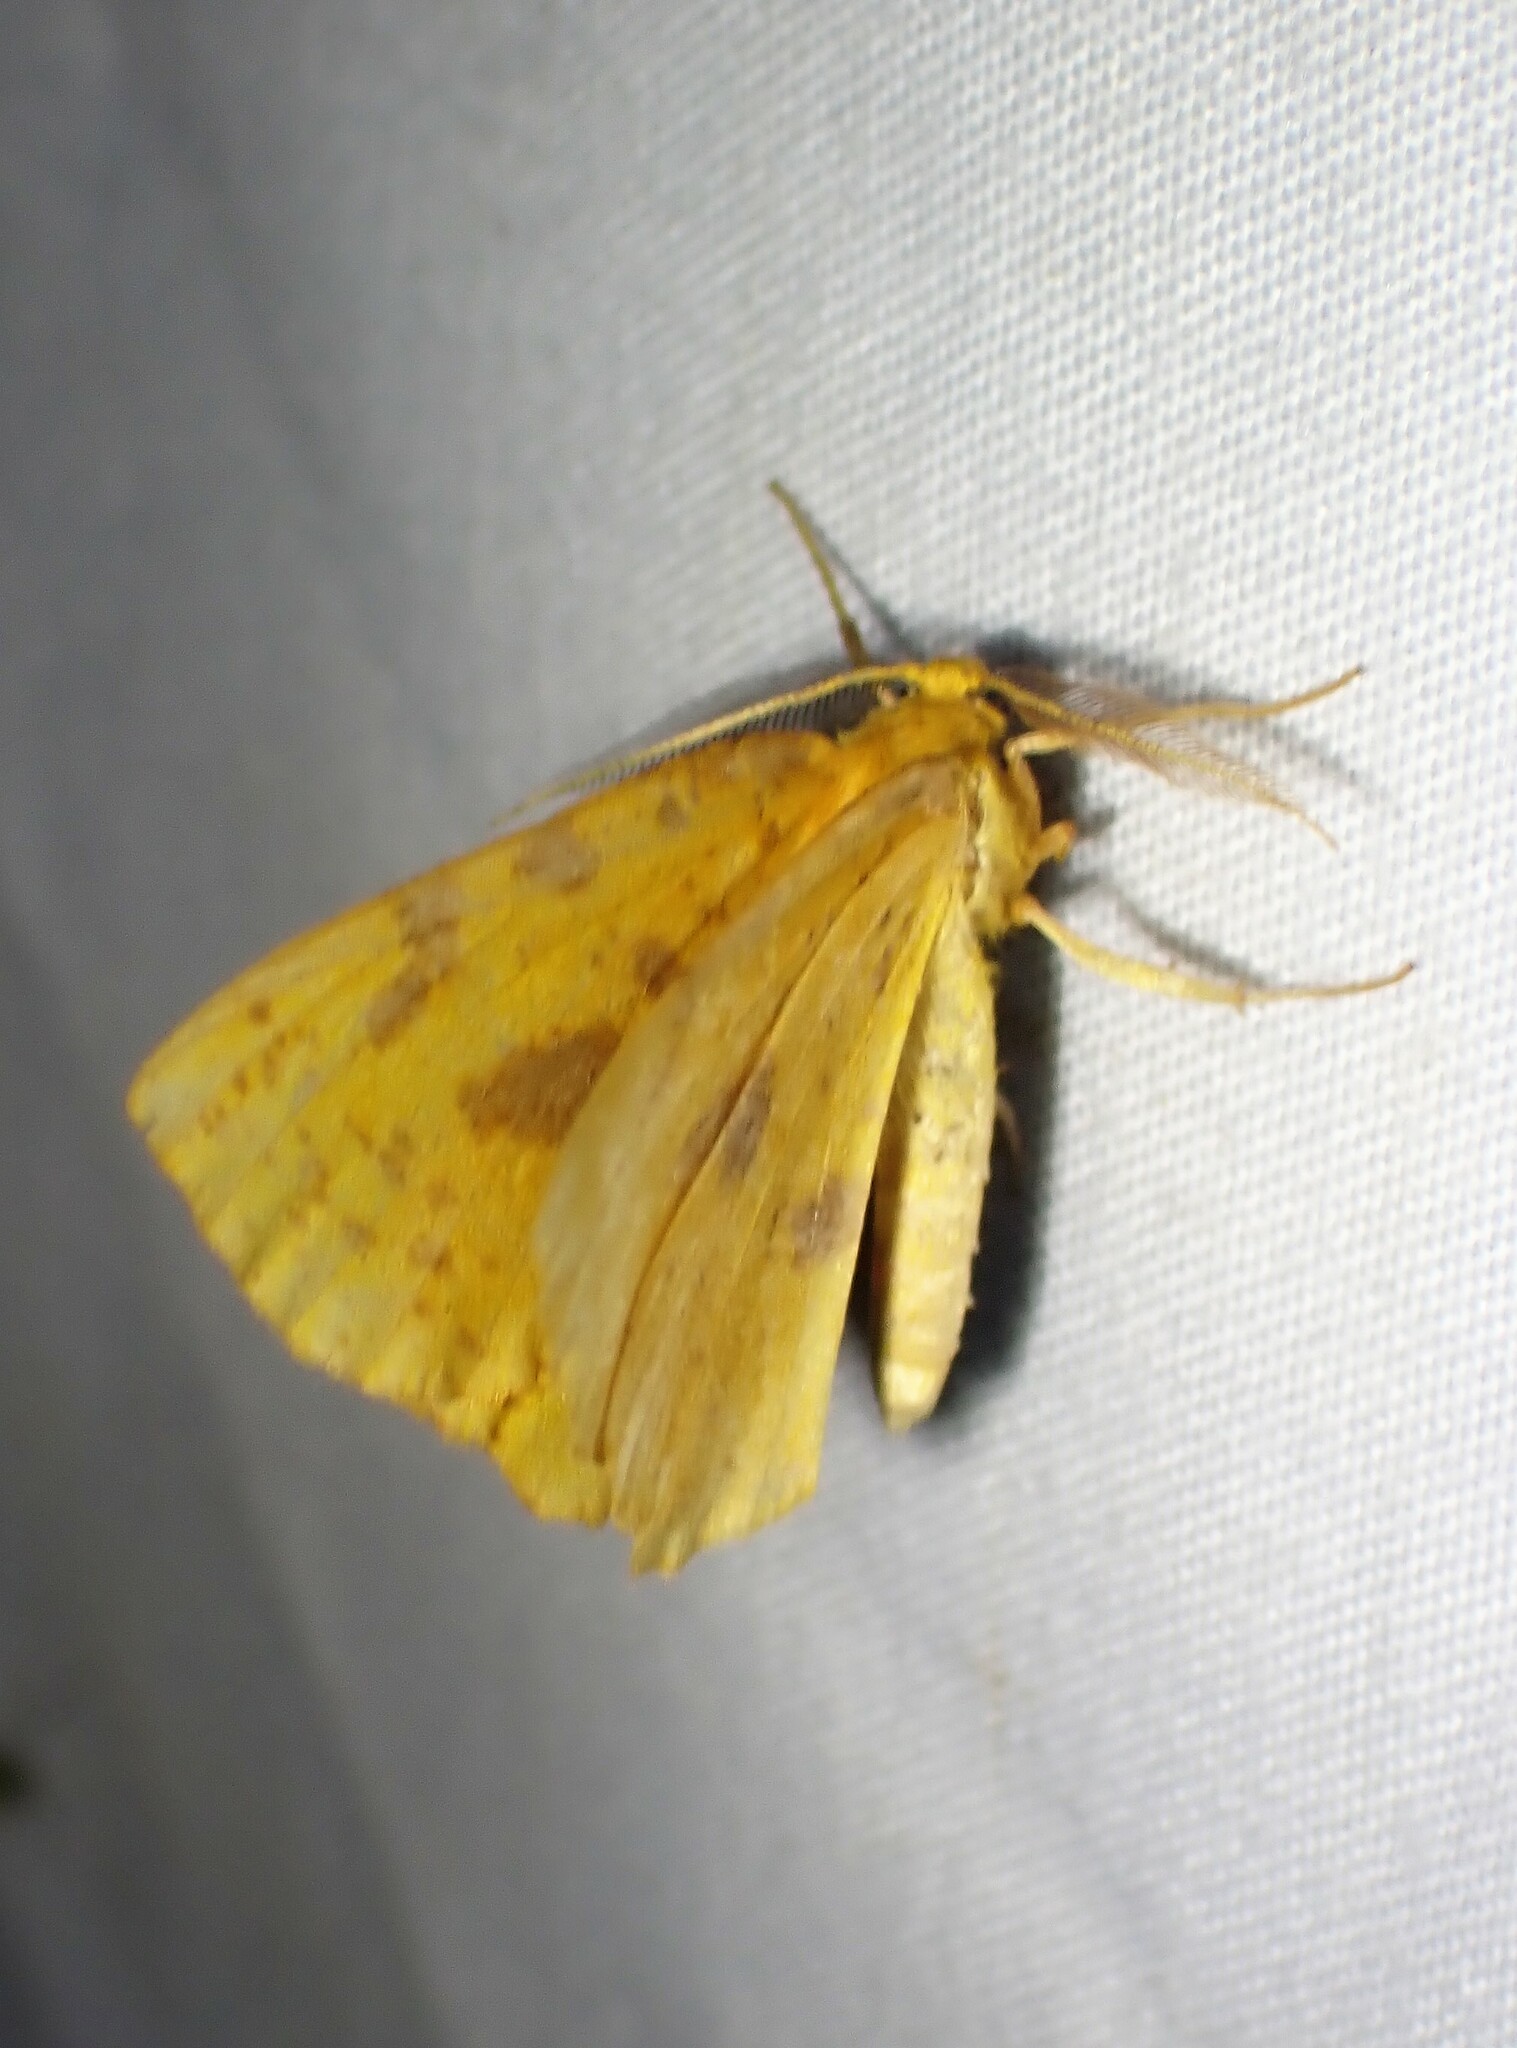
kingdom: Animalia
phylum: Arthropoda
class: Insecta
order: Lepidoptera
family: Geometridae
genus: Xanthotype
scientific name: Xanthotype
